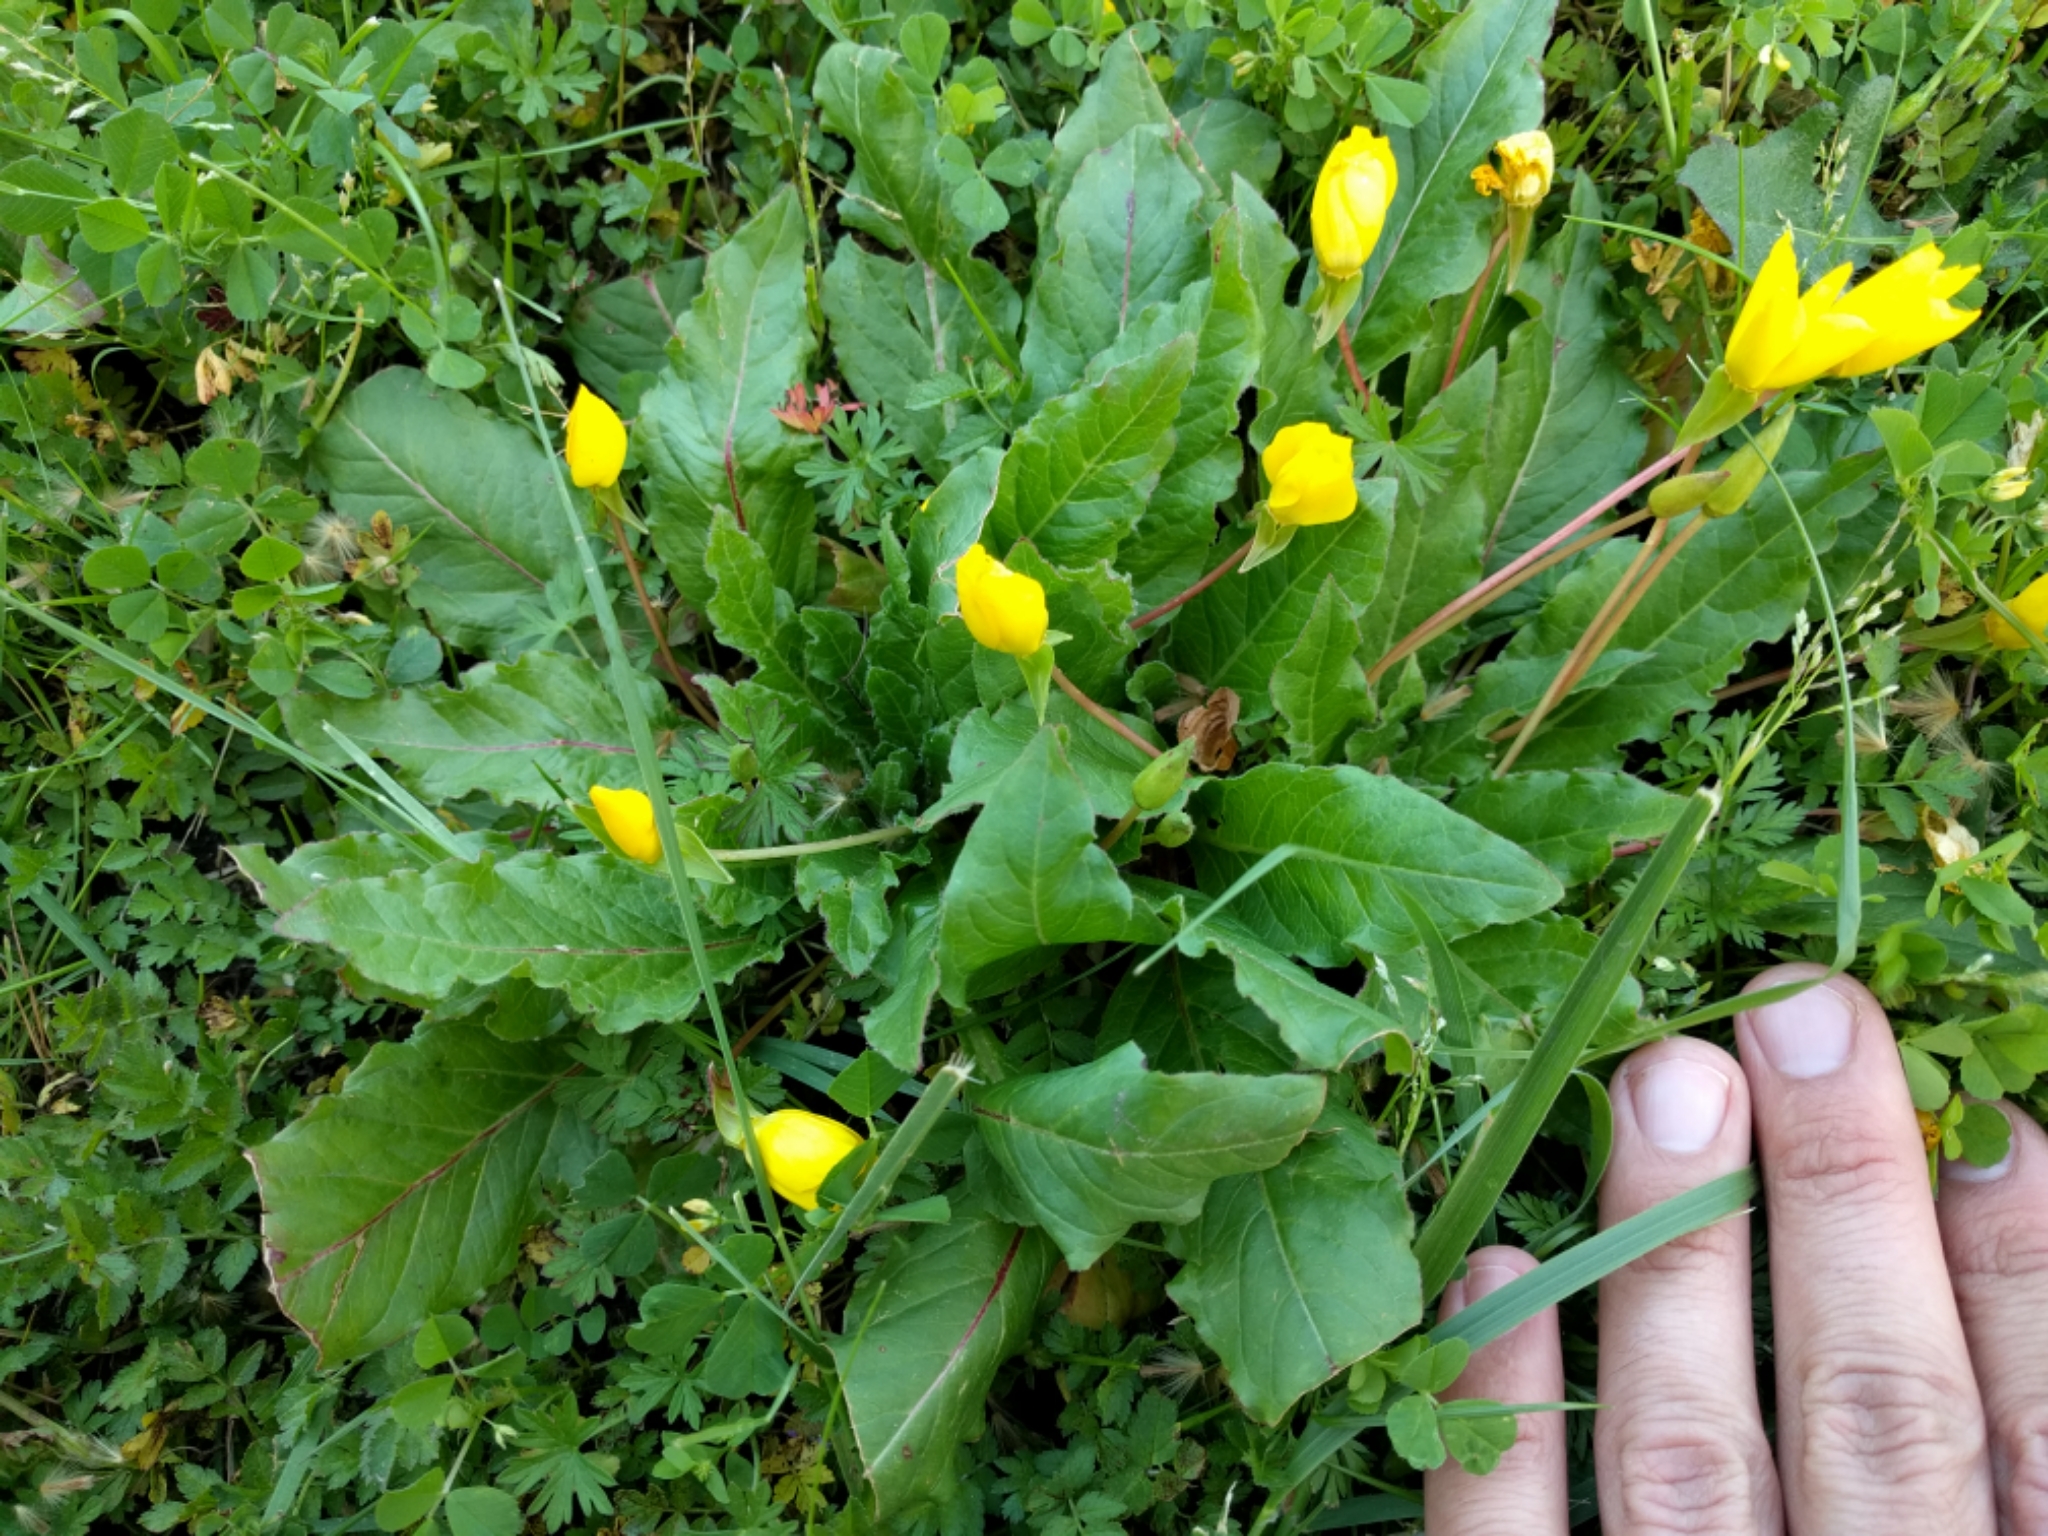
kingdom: Plantae
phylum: Tracheophyta
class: Magnoliopsida
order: Myrtales
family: Onagraceae
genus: Taraxia
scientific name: Taraxia ovata
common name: Goldeneggs
